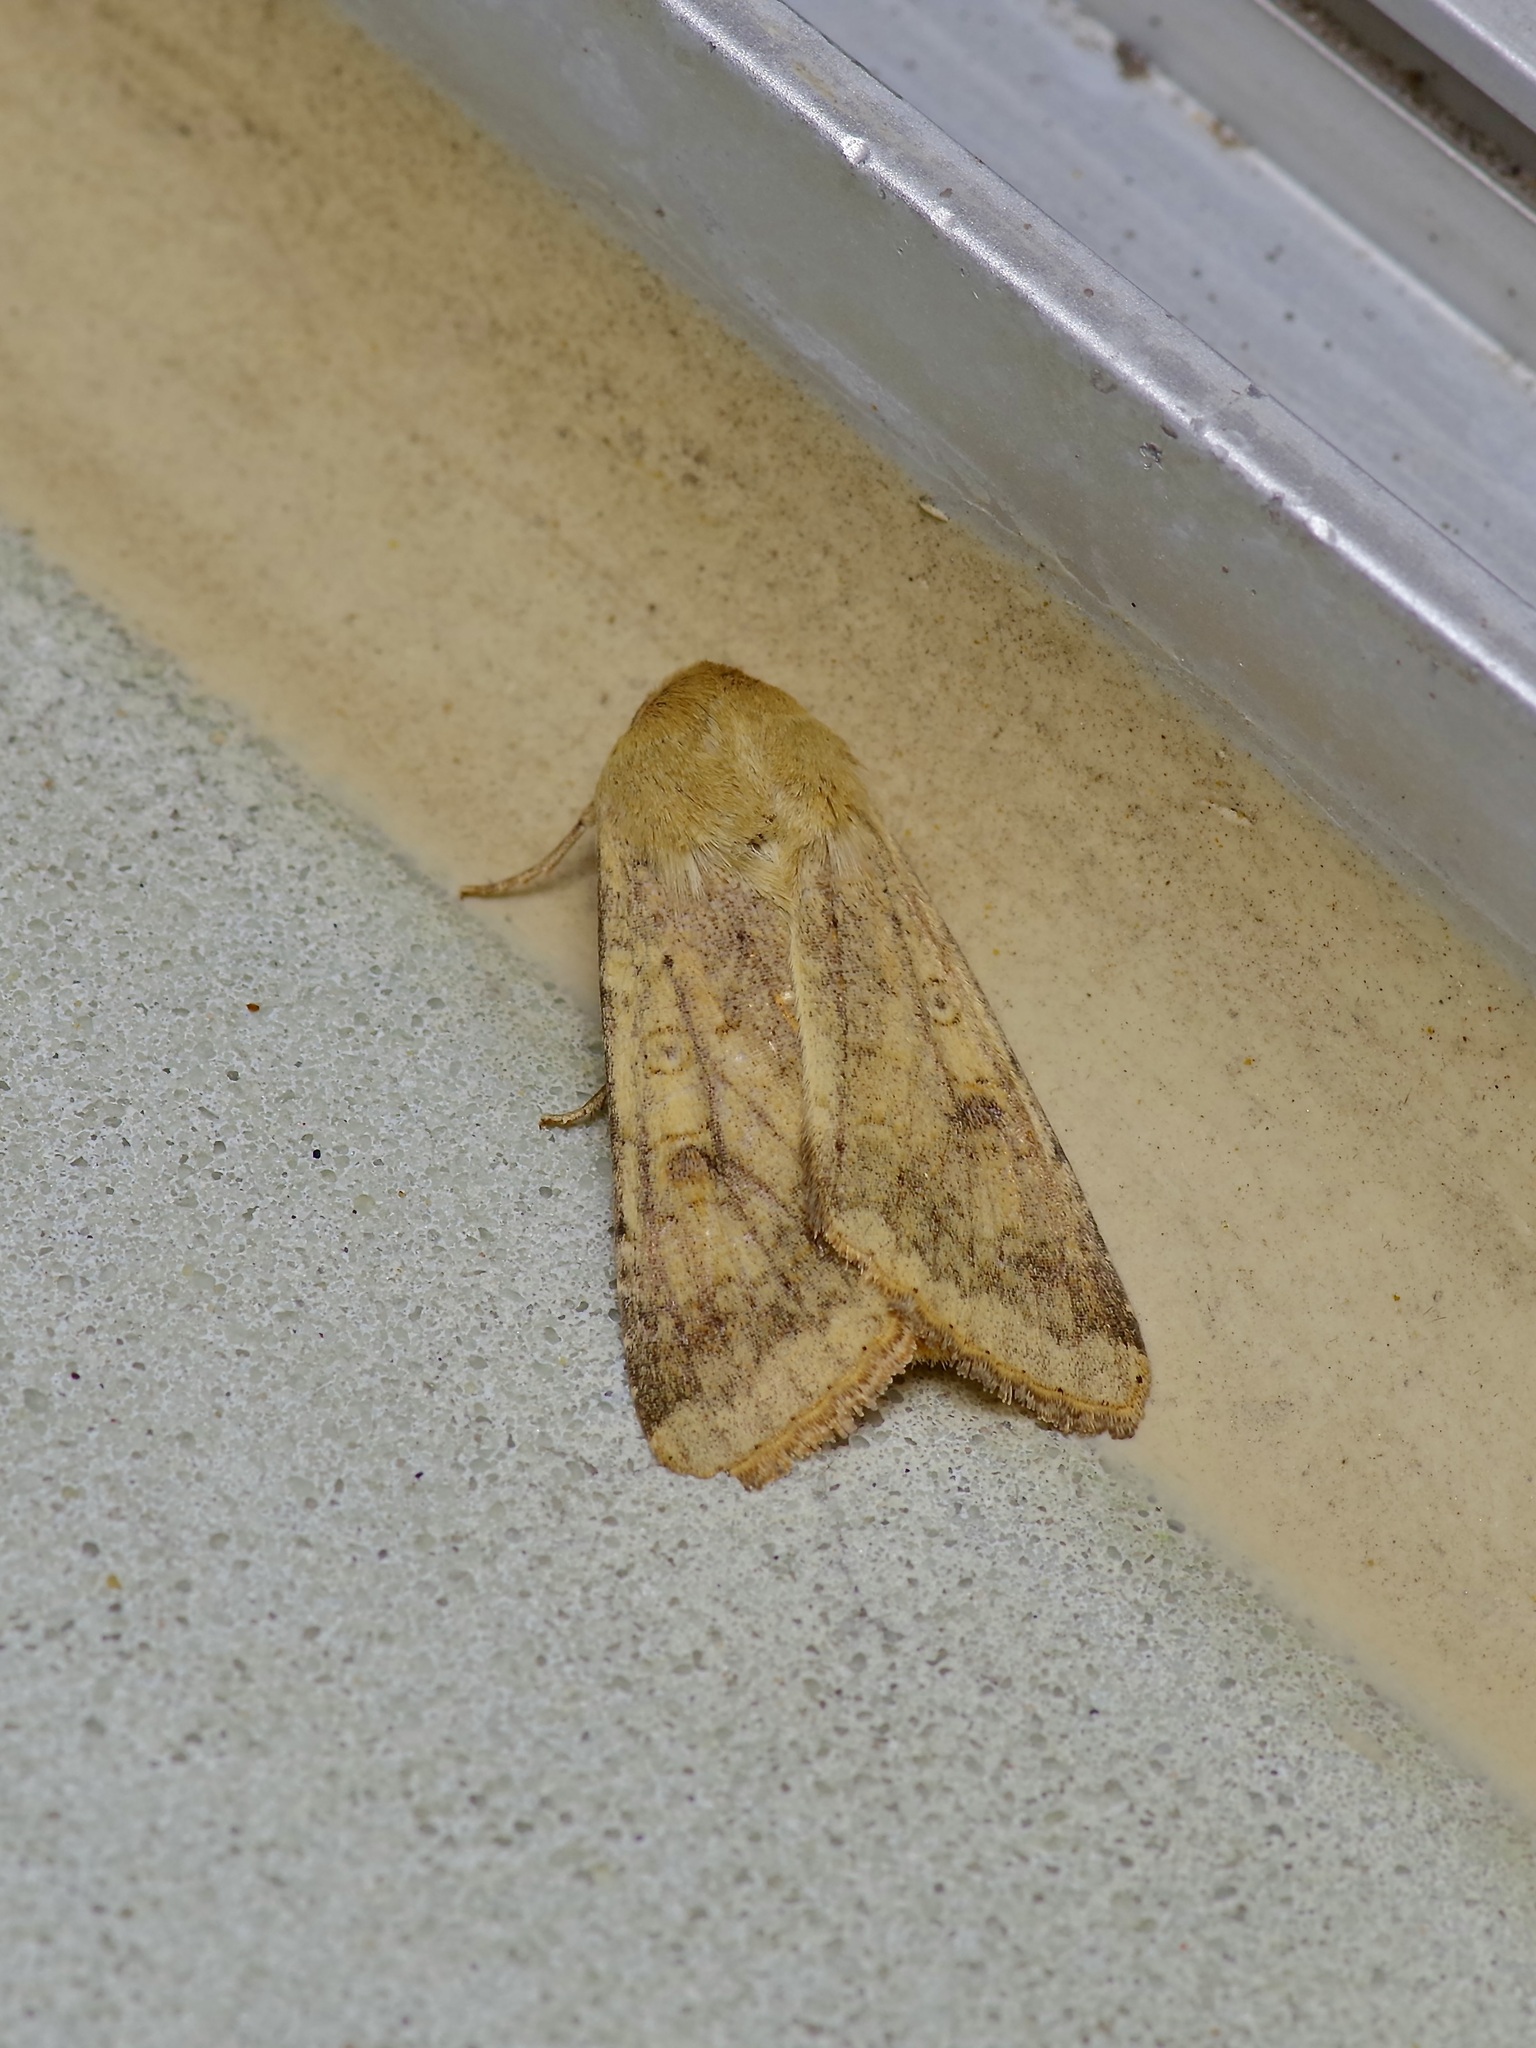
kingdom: Animalia
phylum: Arthropoda
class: Insecta
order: Lepidoptera
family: Noctuidae
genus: Helicoverpa
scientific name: Helicoverpa zea
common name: Bollworm
